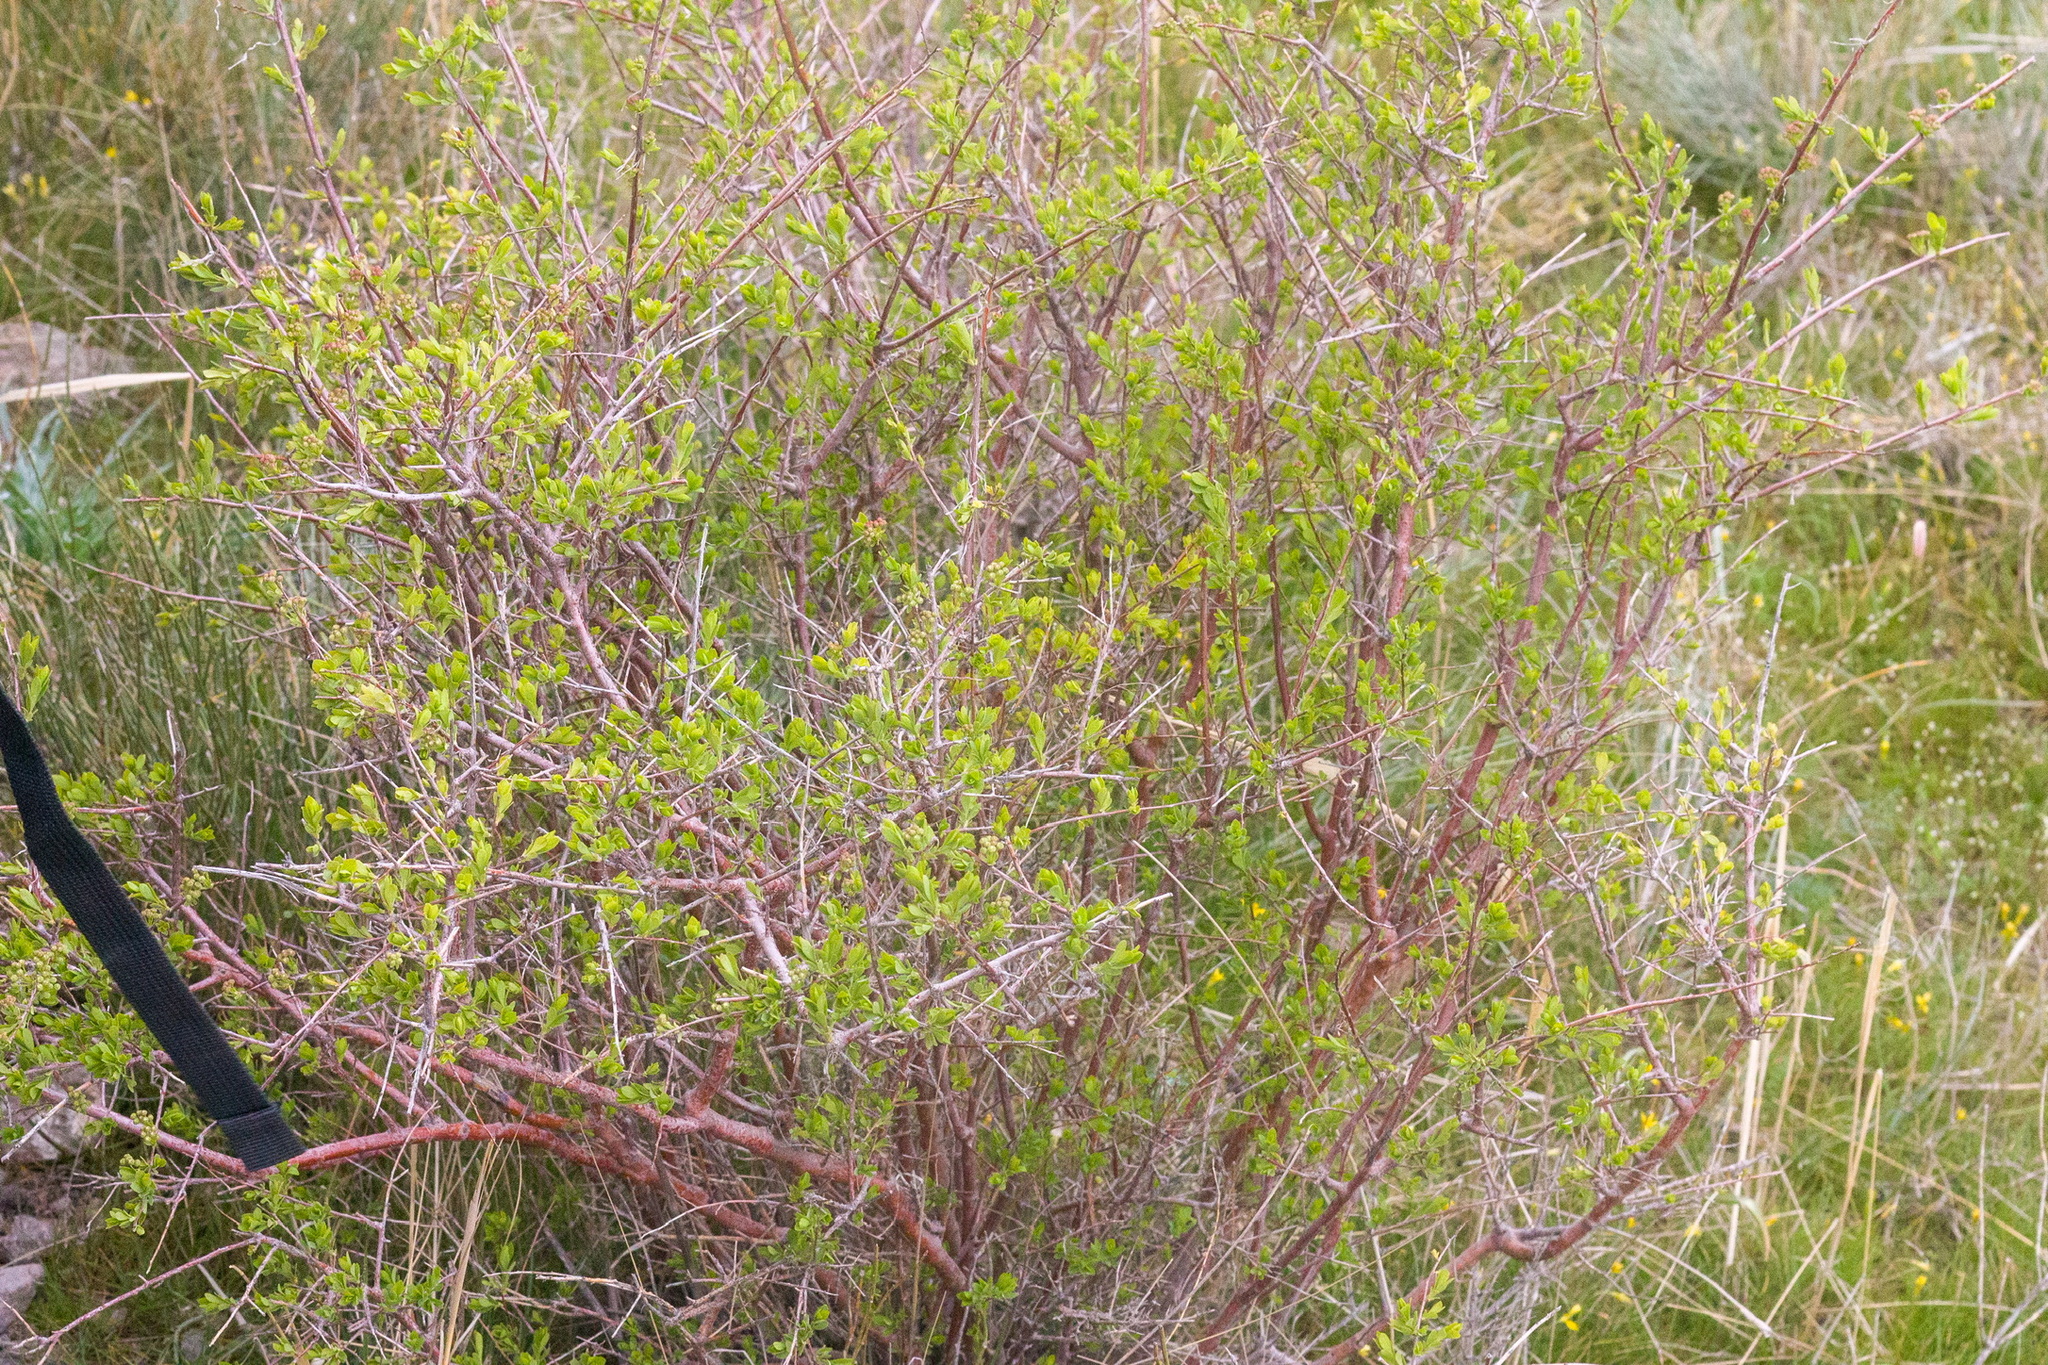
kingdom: Plantae
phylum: Tracheophyta
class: Magnoliopsida
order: Rosales
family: Rosaceae
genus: Spiraea
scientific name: Spiraea hypericifolia
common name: Iberian spirea
